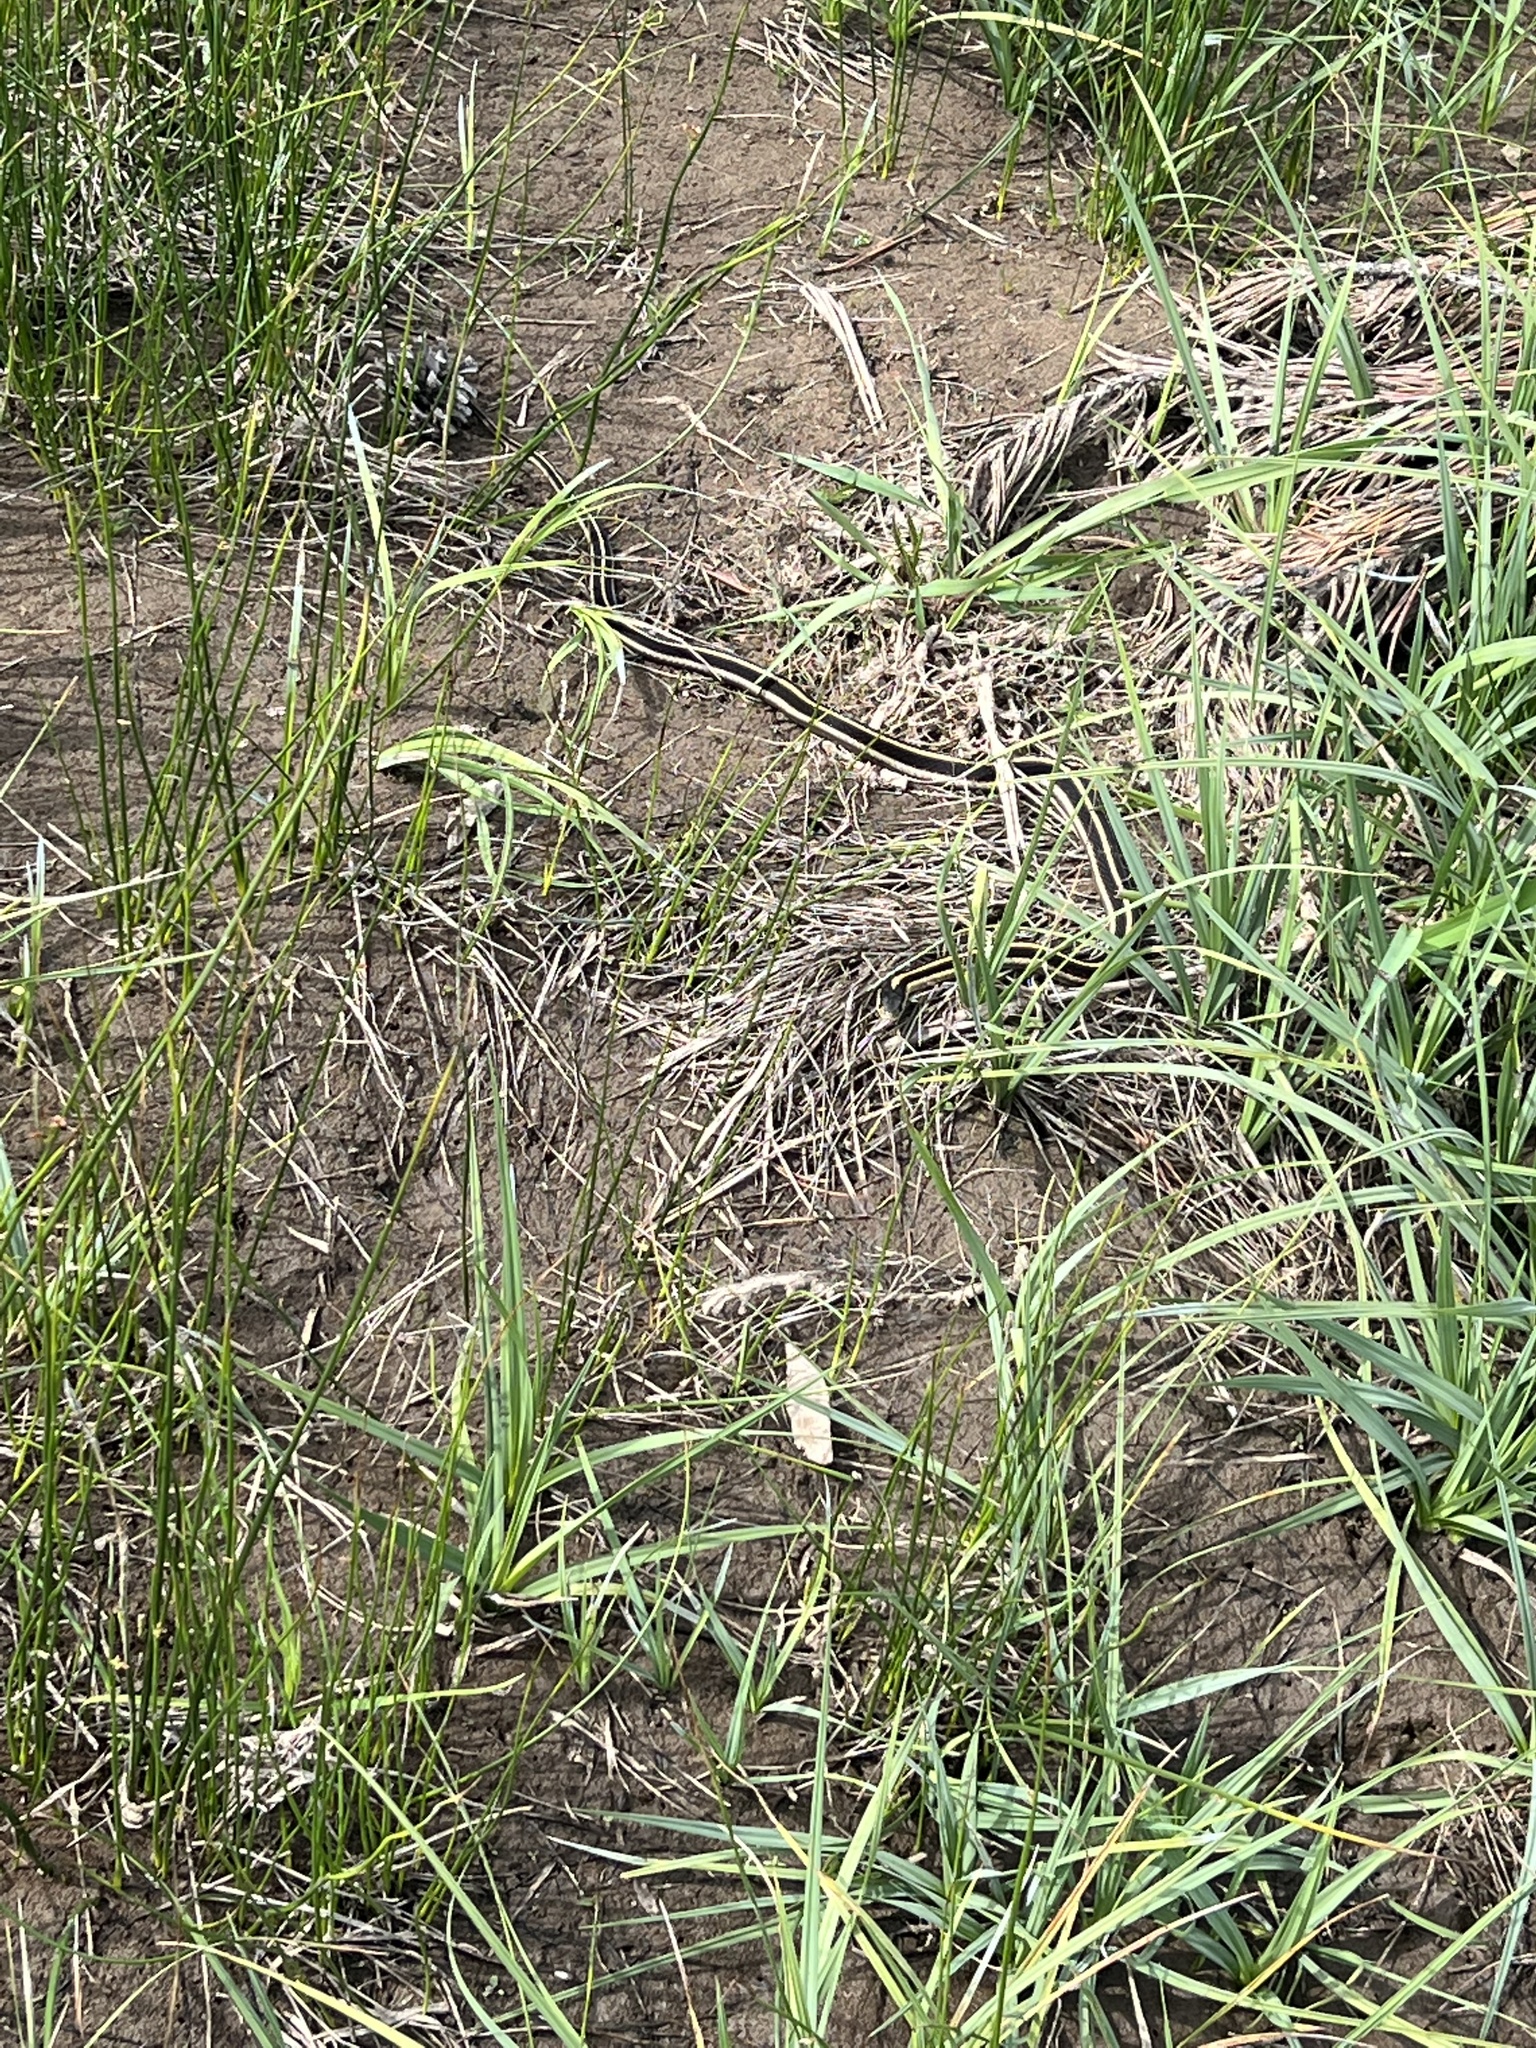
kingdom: Animalia
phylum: Chordata
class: Squamata
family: Colubridae
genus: Thamnophis
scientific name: Thamnophis elegans
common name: Western terrestrial garter snake
